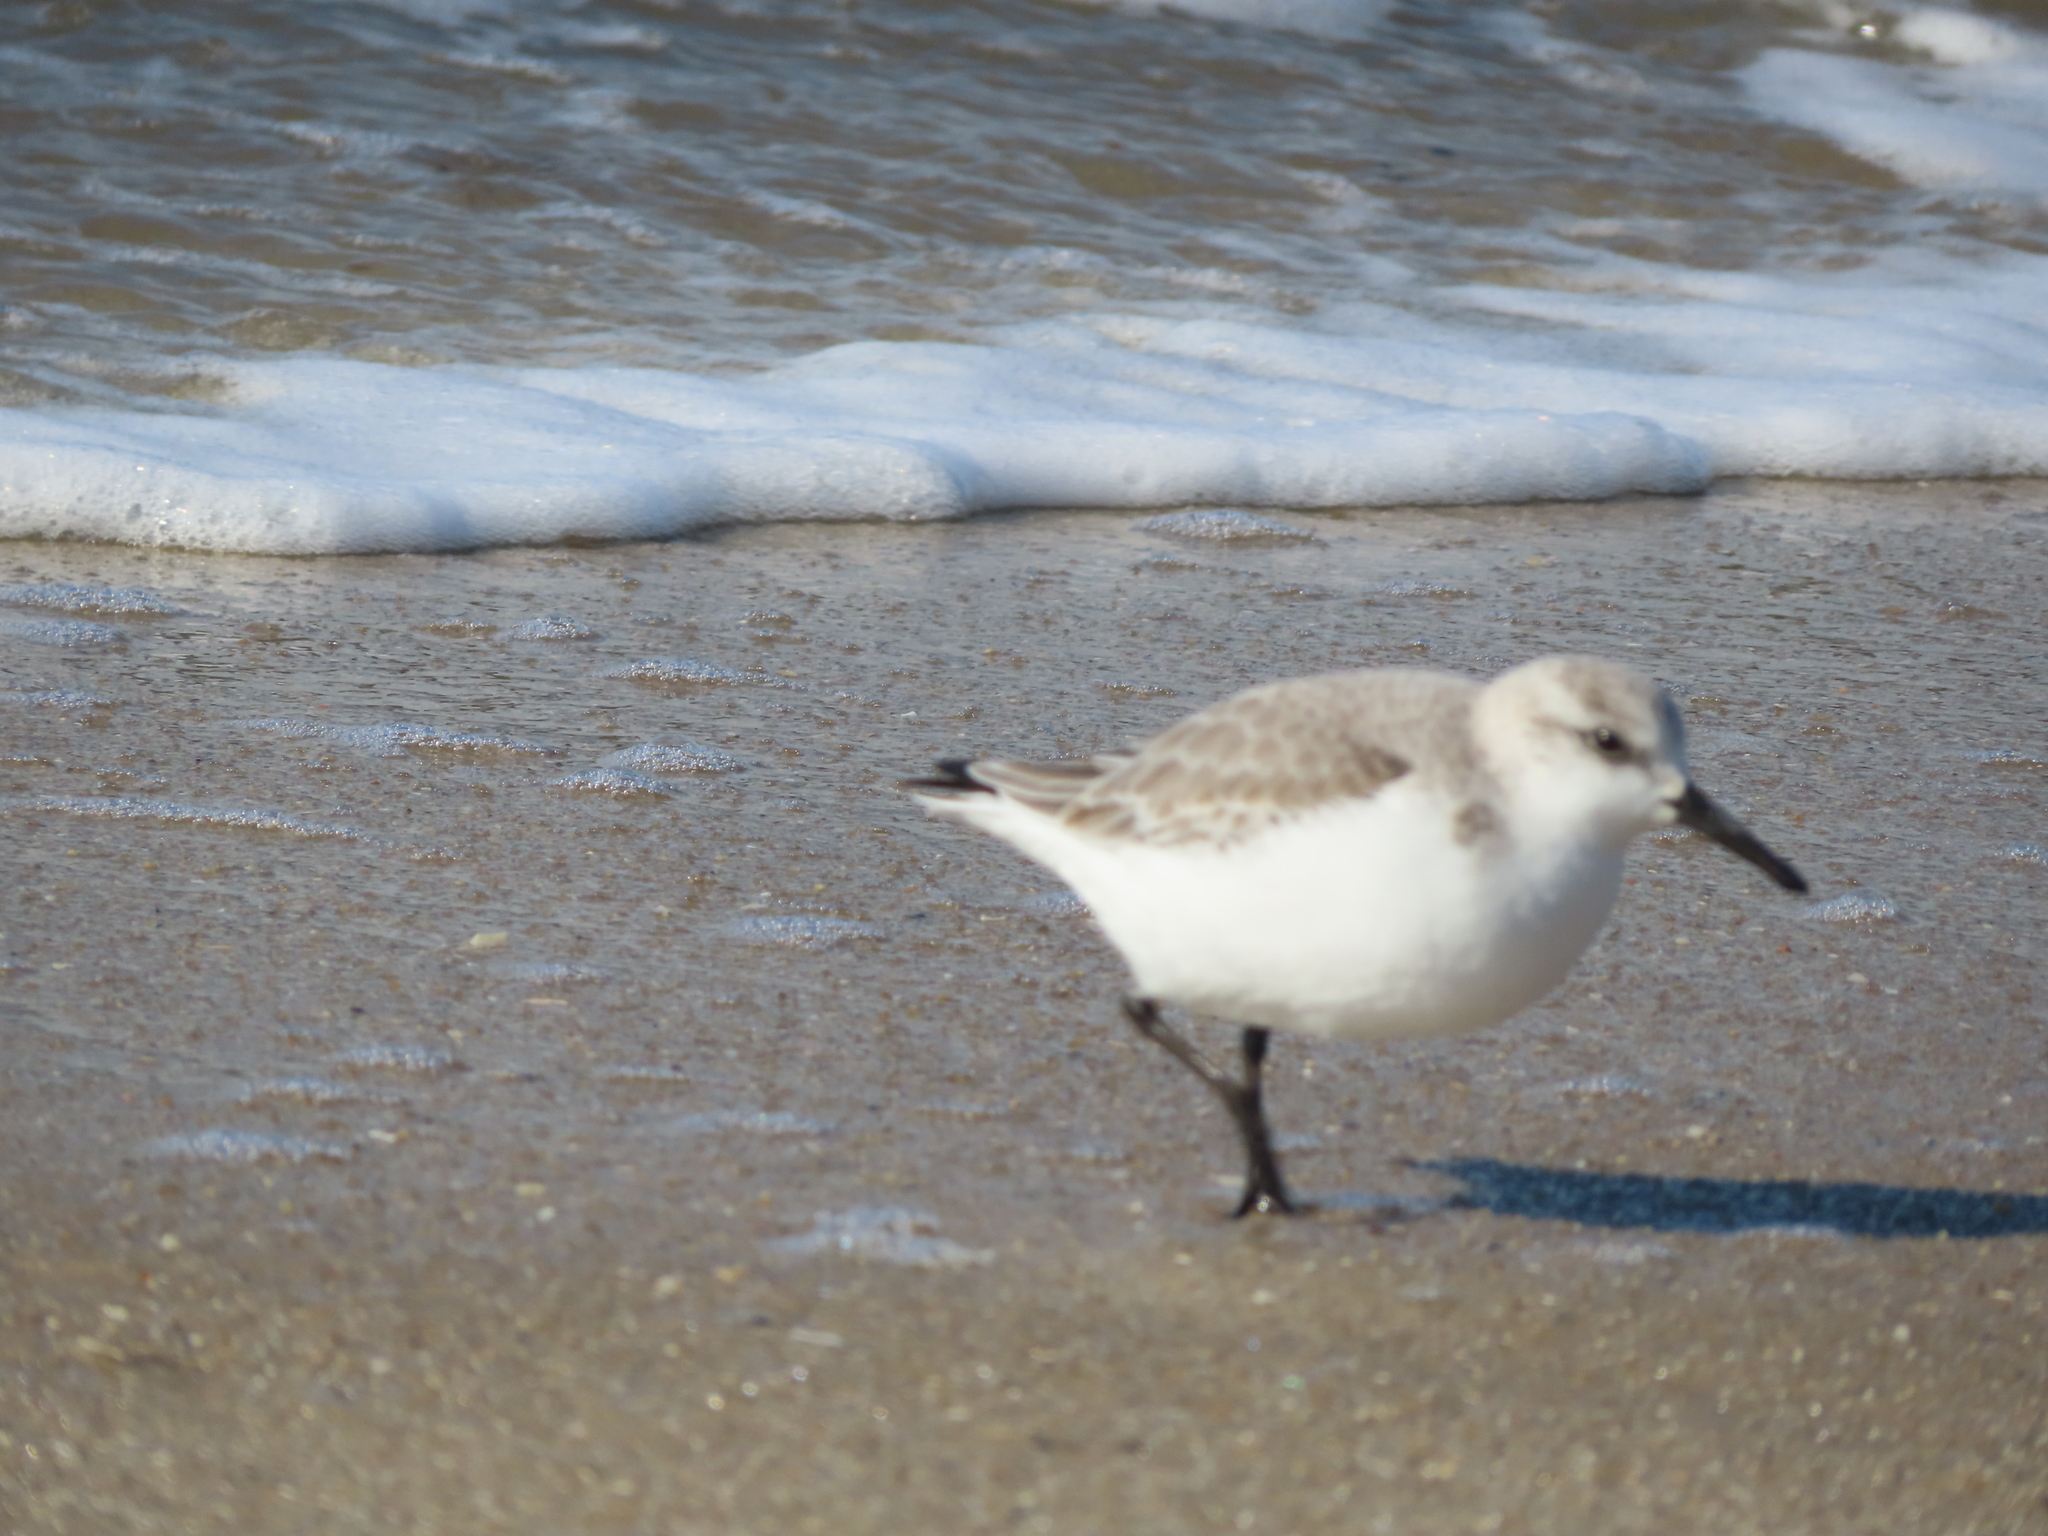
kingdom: Animalia
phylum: Chordata
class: Aves
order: Charadriiformes
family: Scolopacidae
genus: Calidris
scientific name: Calidris alba
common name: Sanderling
